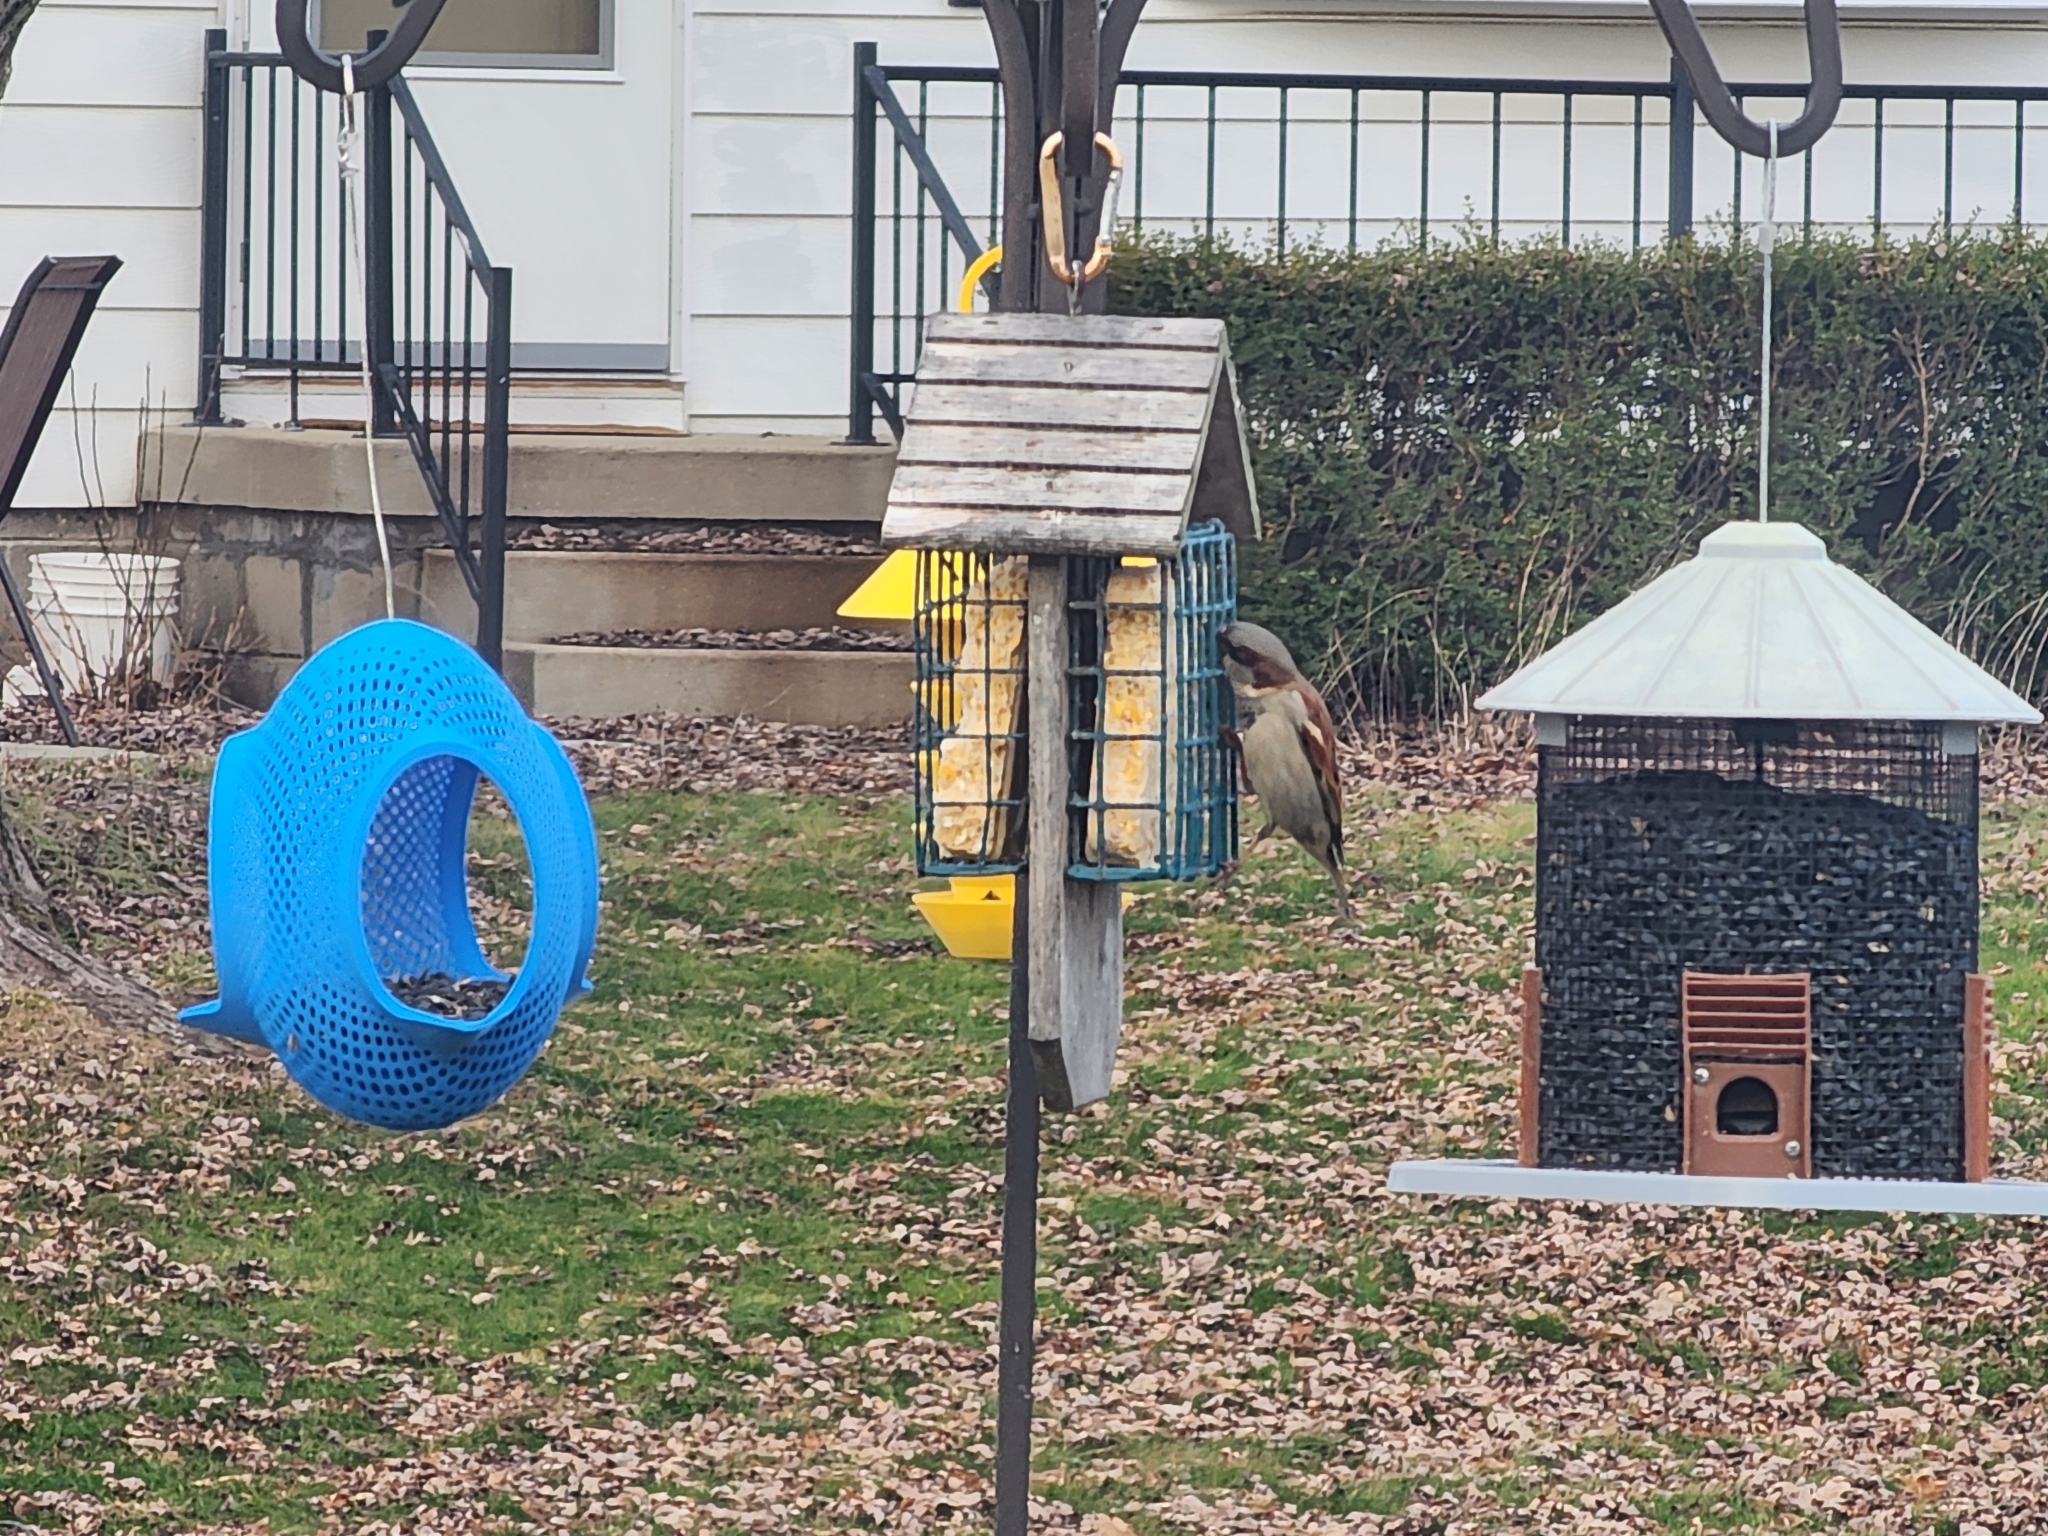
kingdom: Animalia
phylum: Chordata
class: Aves
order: Passeriformes
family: Passeridae
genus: Passer
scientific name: Passer domesticus
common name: House sparrow
